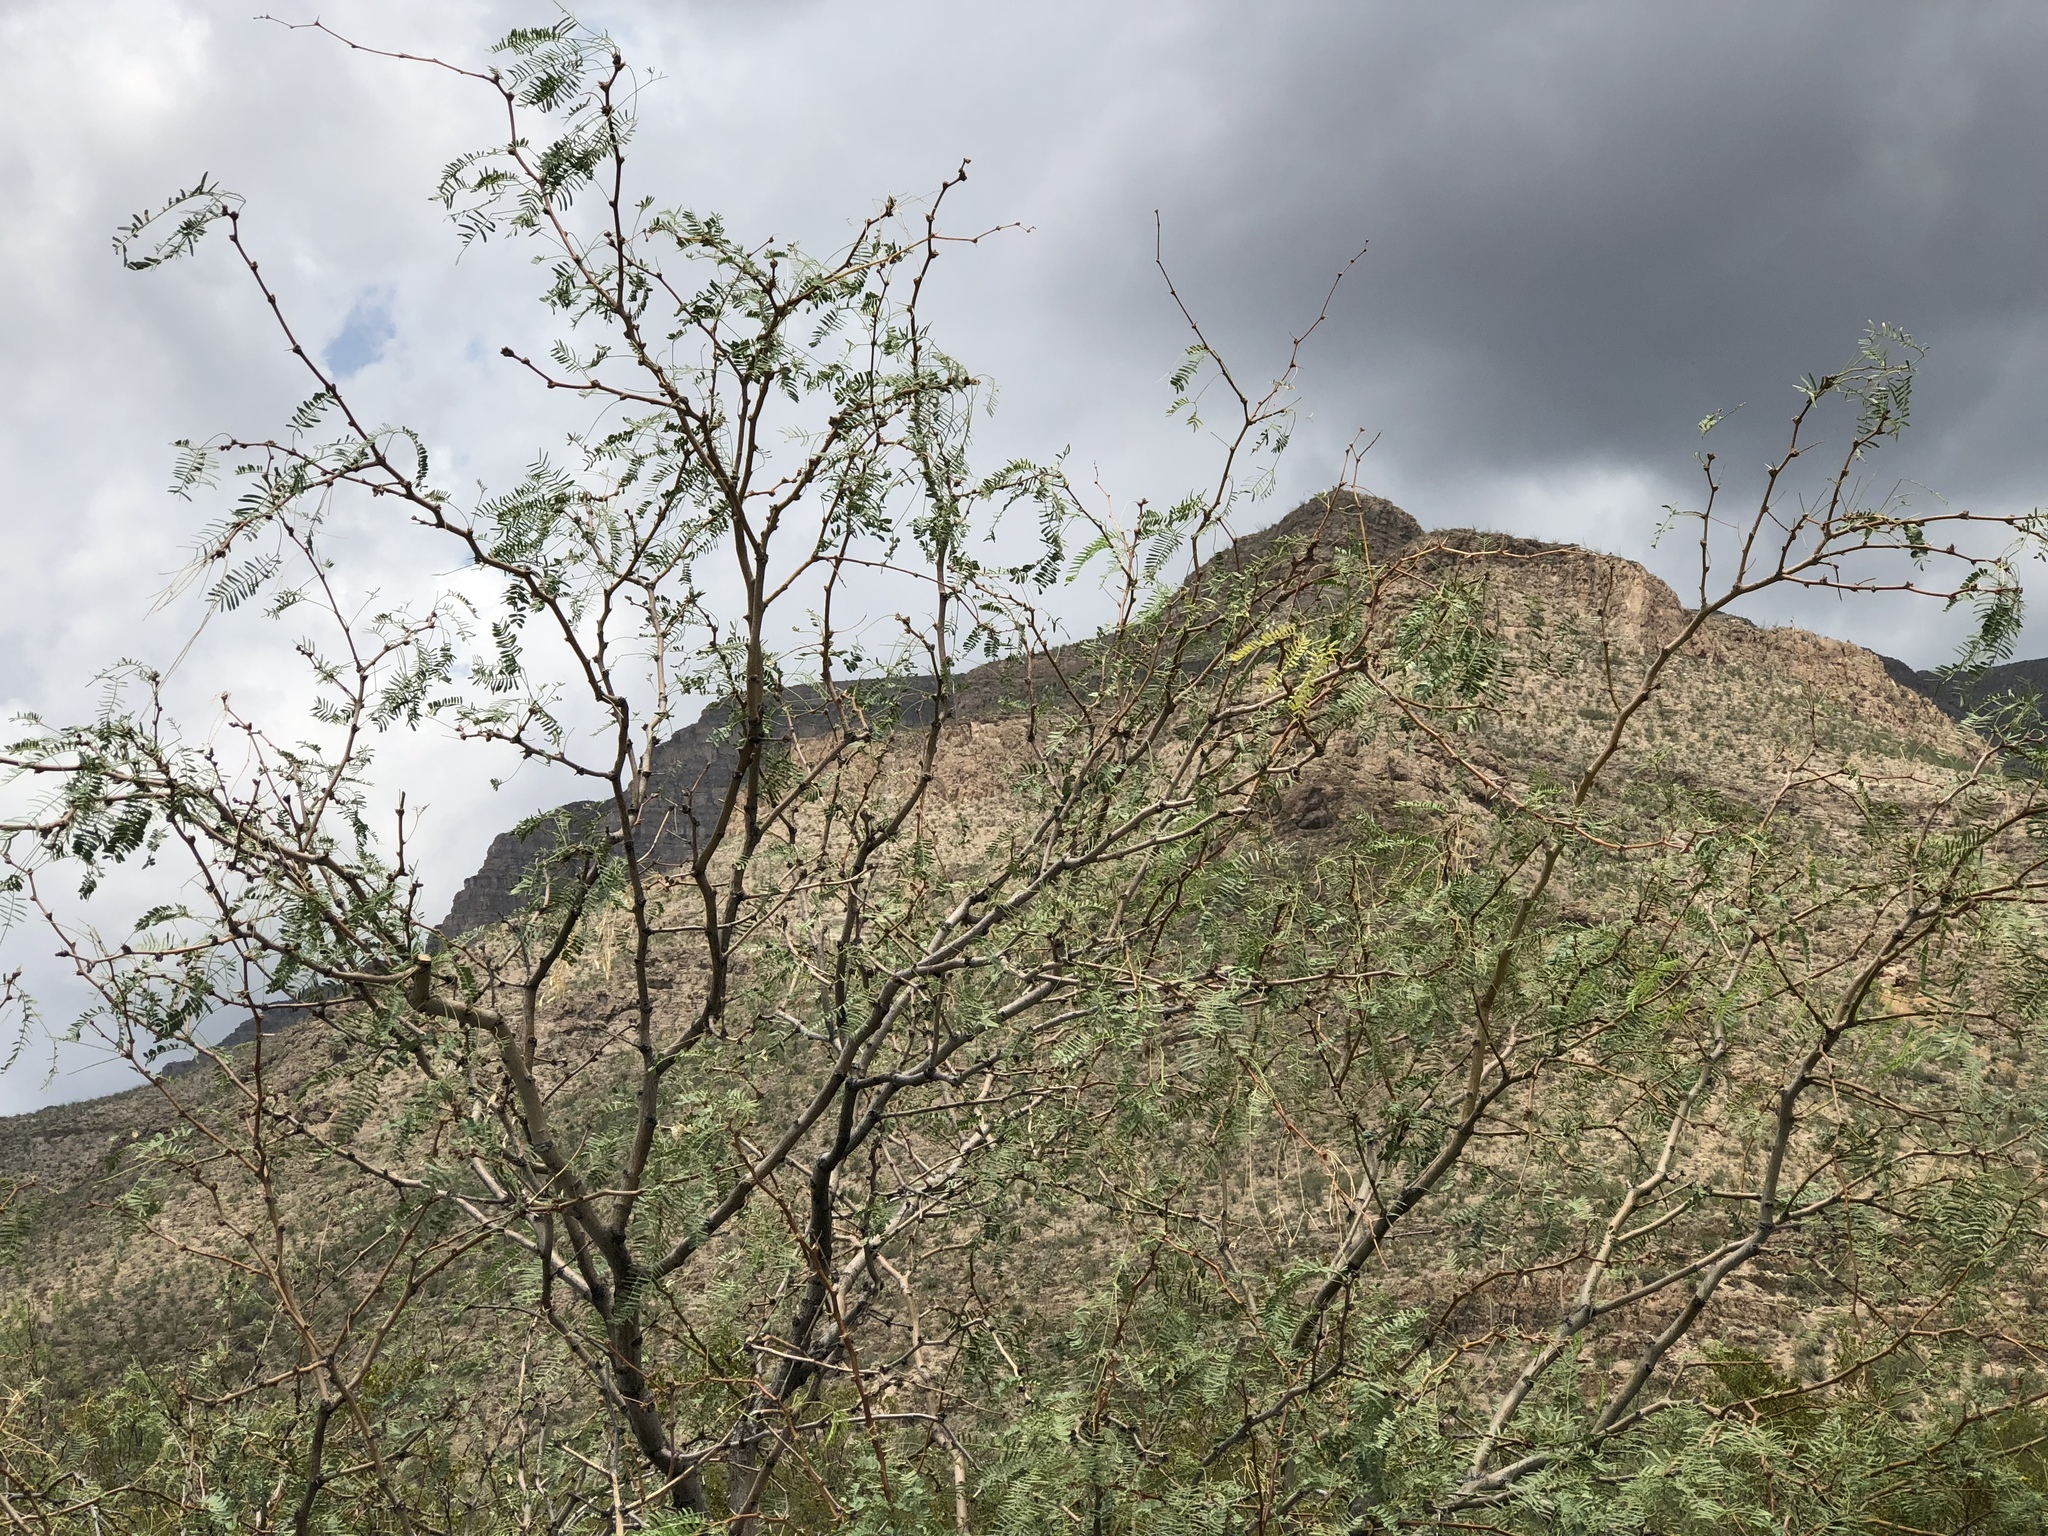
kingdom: Plantae
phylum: Tracheophyta
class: Magnoliopsida
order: Fabales
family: Fabaceae
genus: Prosopis
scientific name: Prosopis glandulosa
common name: Honey mesquite
